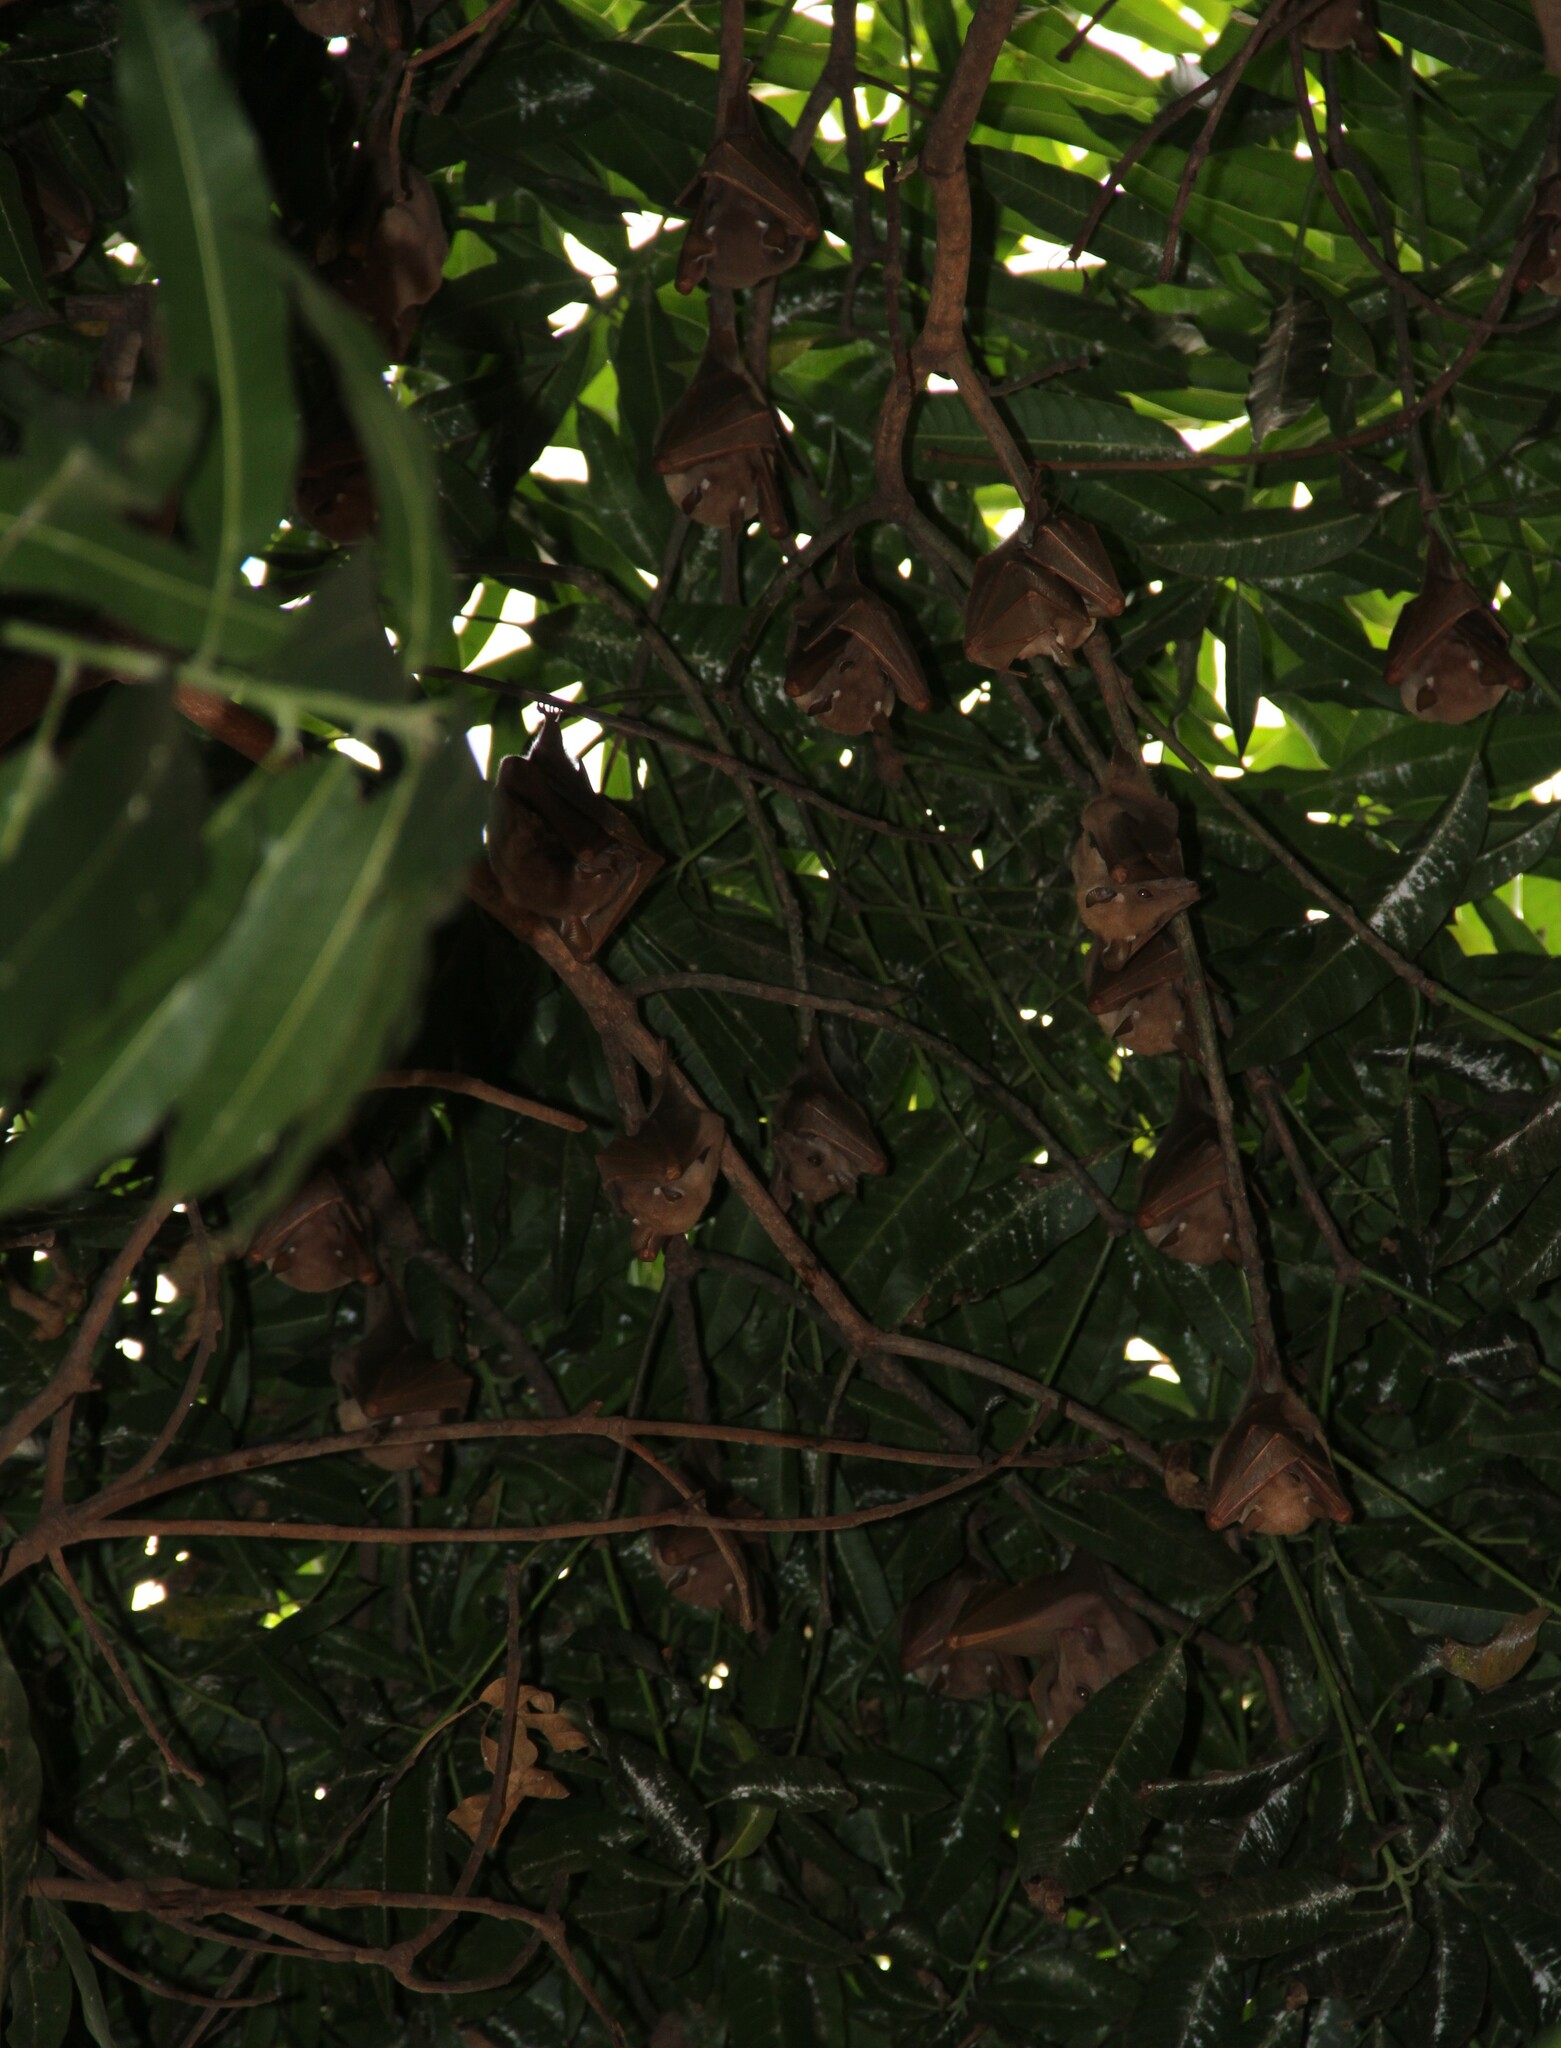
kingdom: Animalia
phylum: Chordata
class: Mammalia
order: Chiroptera
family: Pteropodidae
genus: Epomophorus
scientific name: Epomophorus gambianus
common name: Gambian epauletted fruit bat
